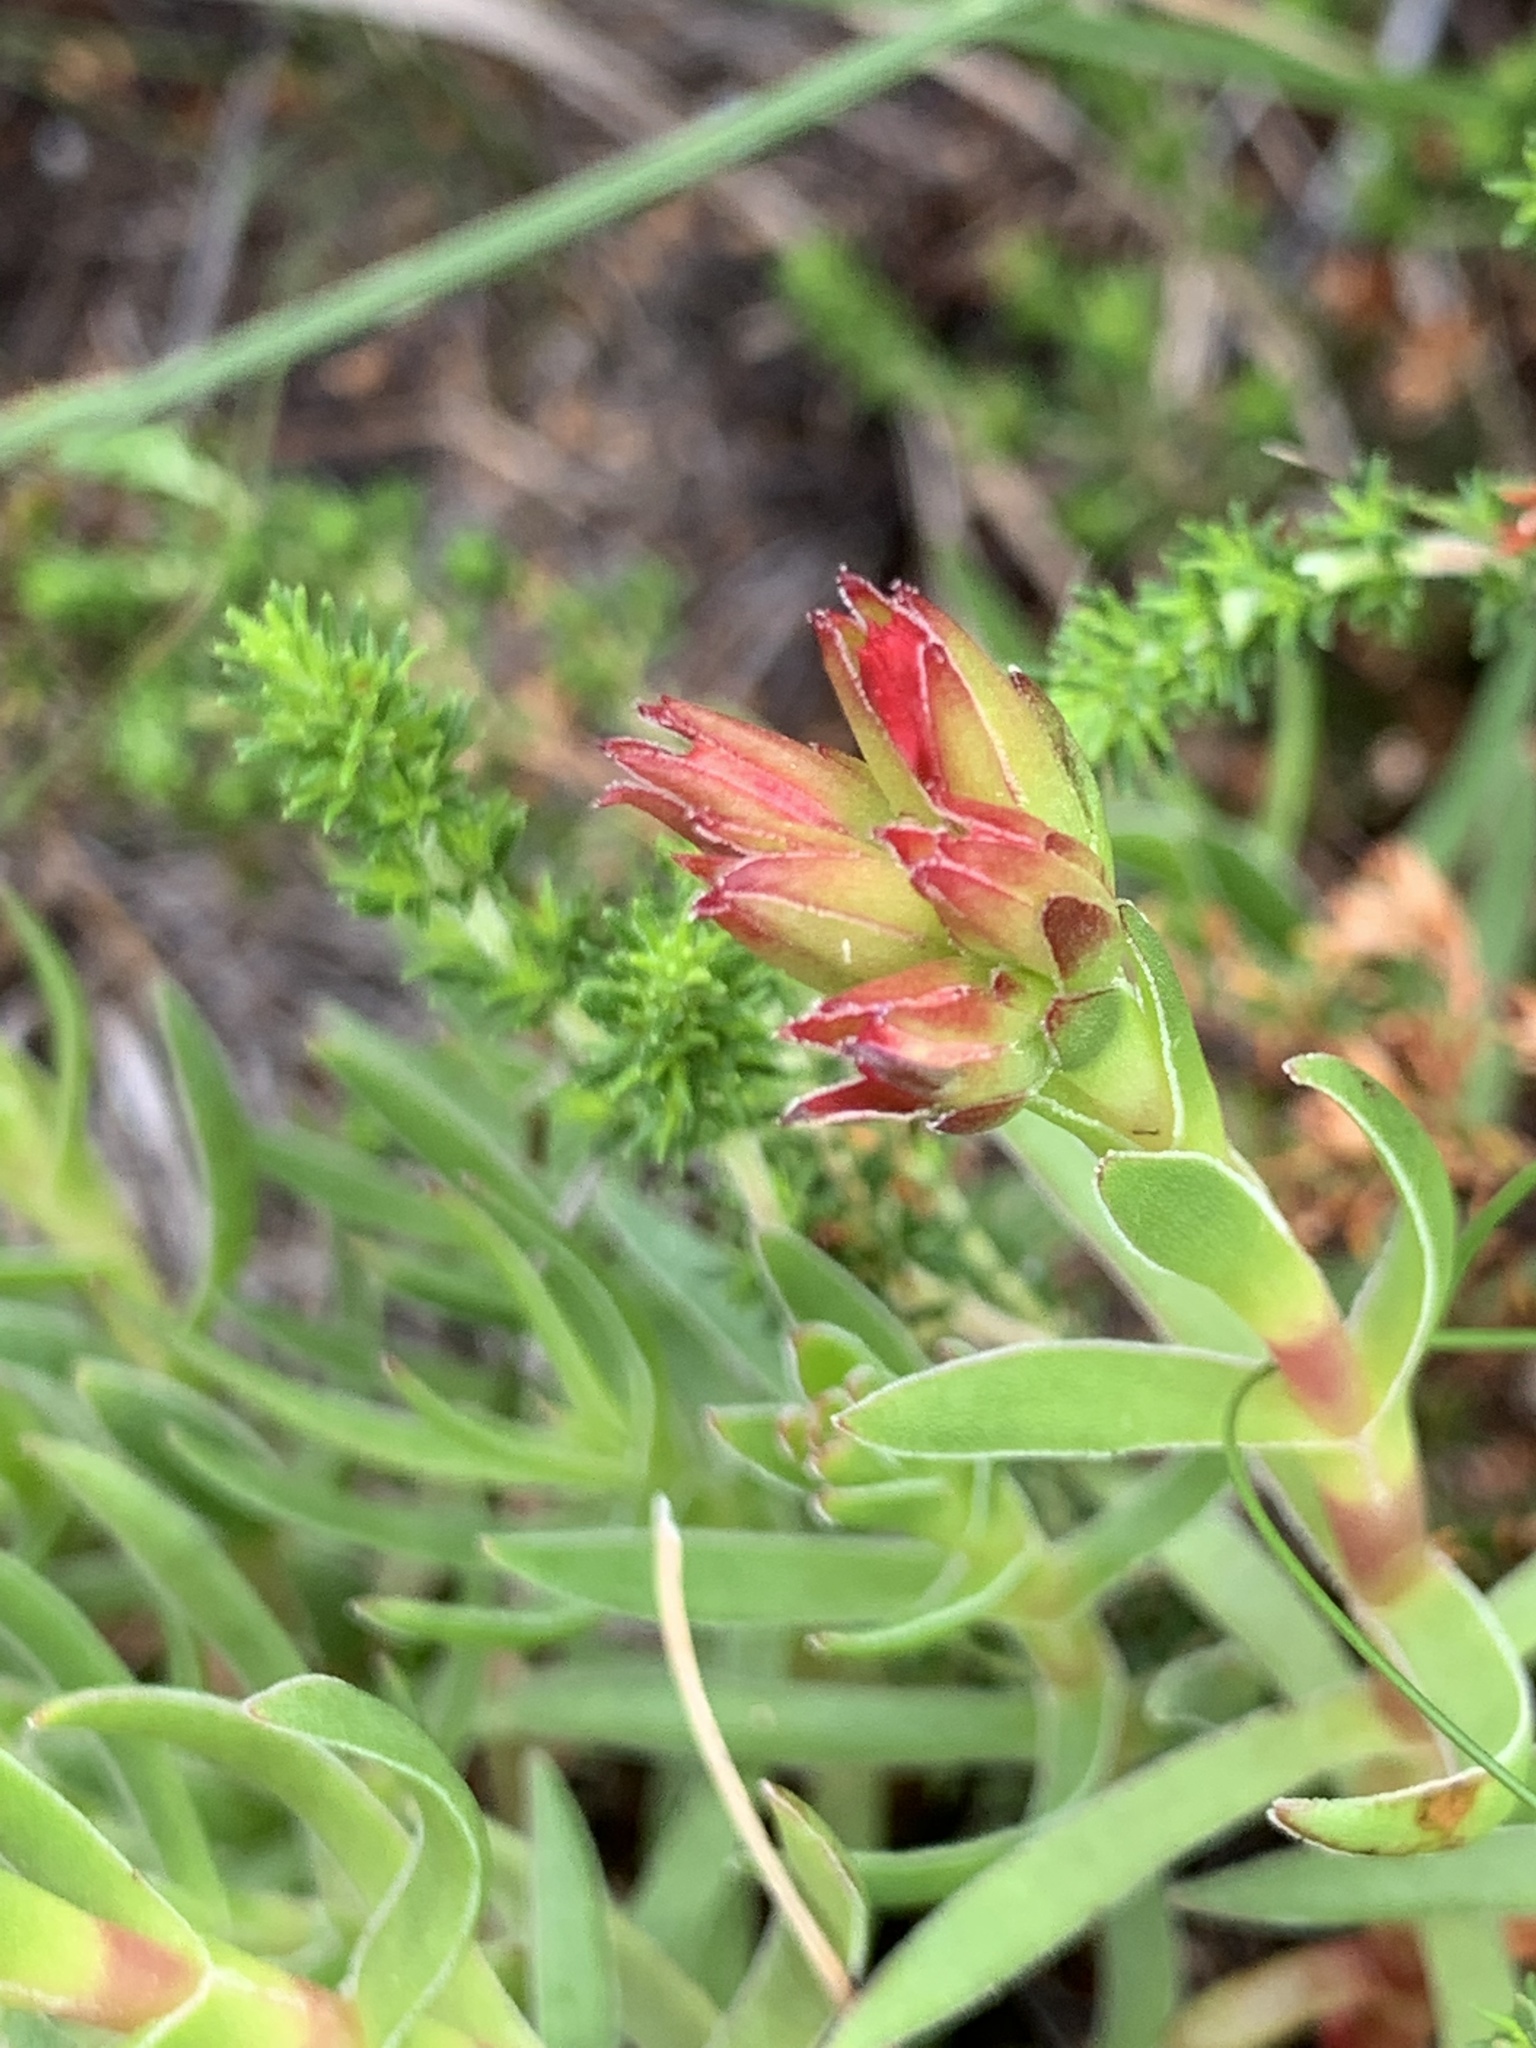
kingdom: Plantae
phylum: Tracheophyta
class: Magnoliopsida
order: Saxifragales
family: Crassulaceae
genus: Crassula
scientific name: Crassula fascicularis
